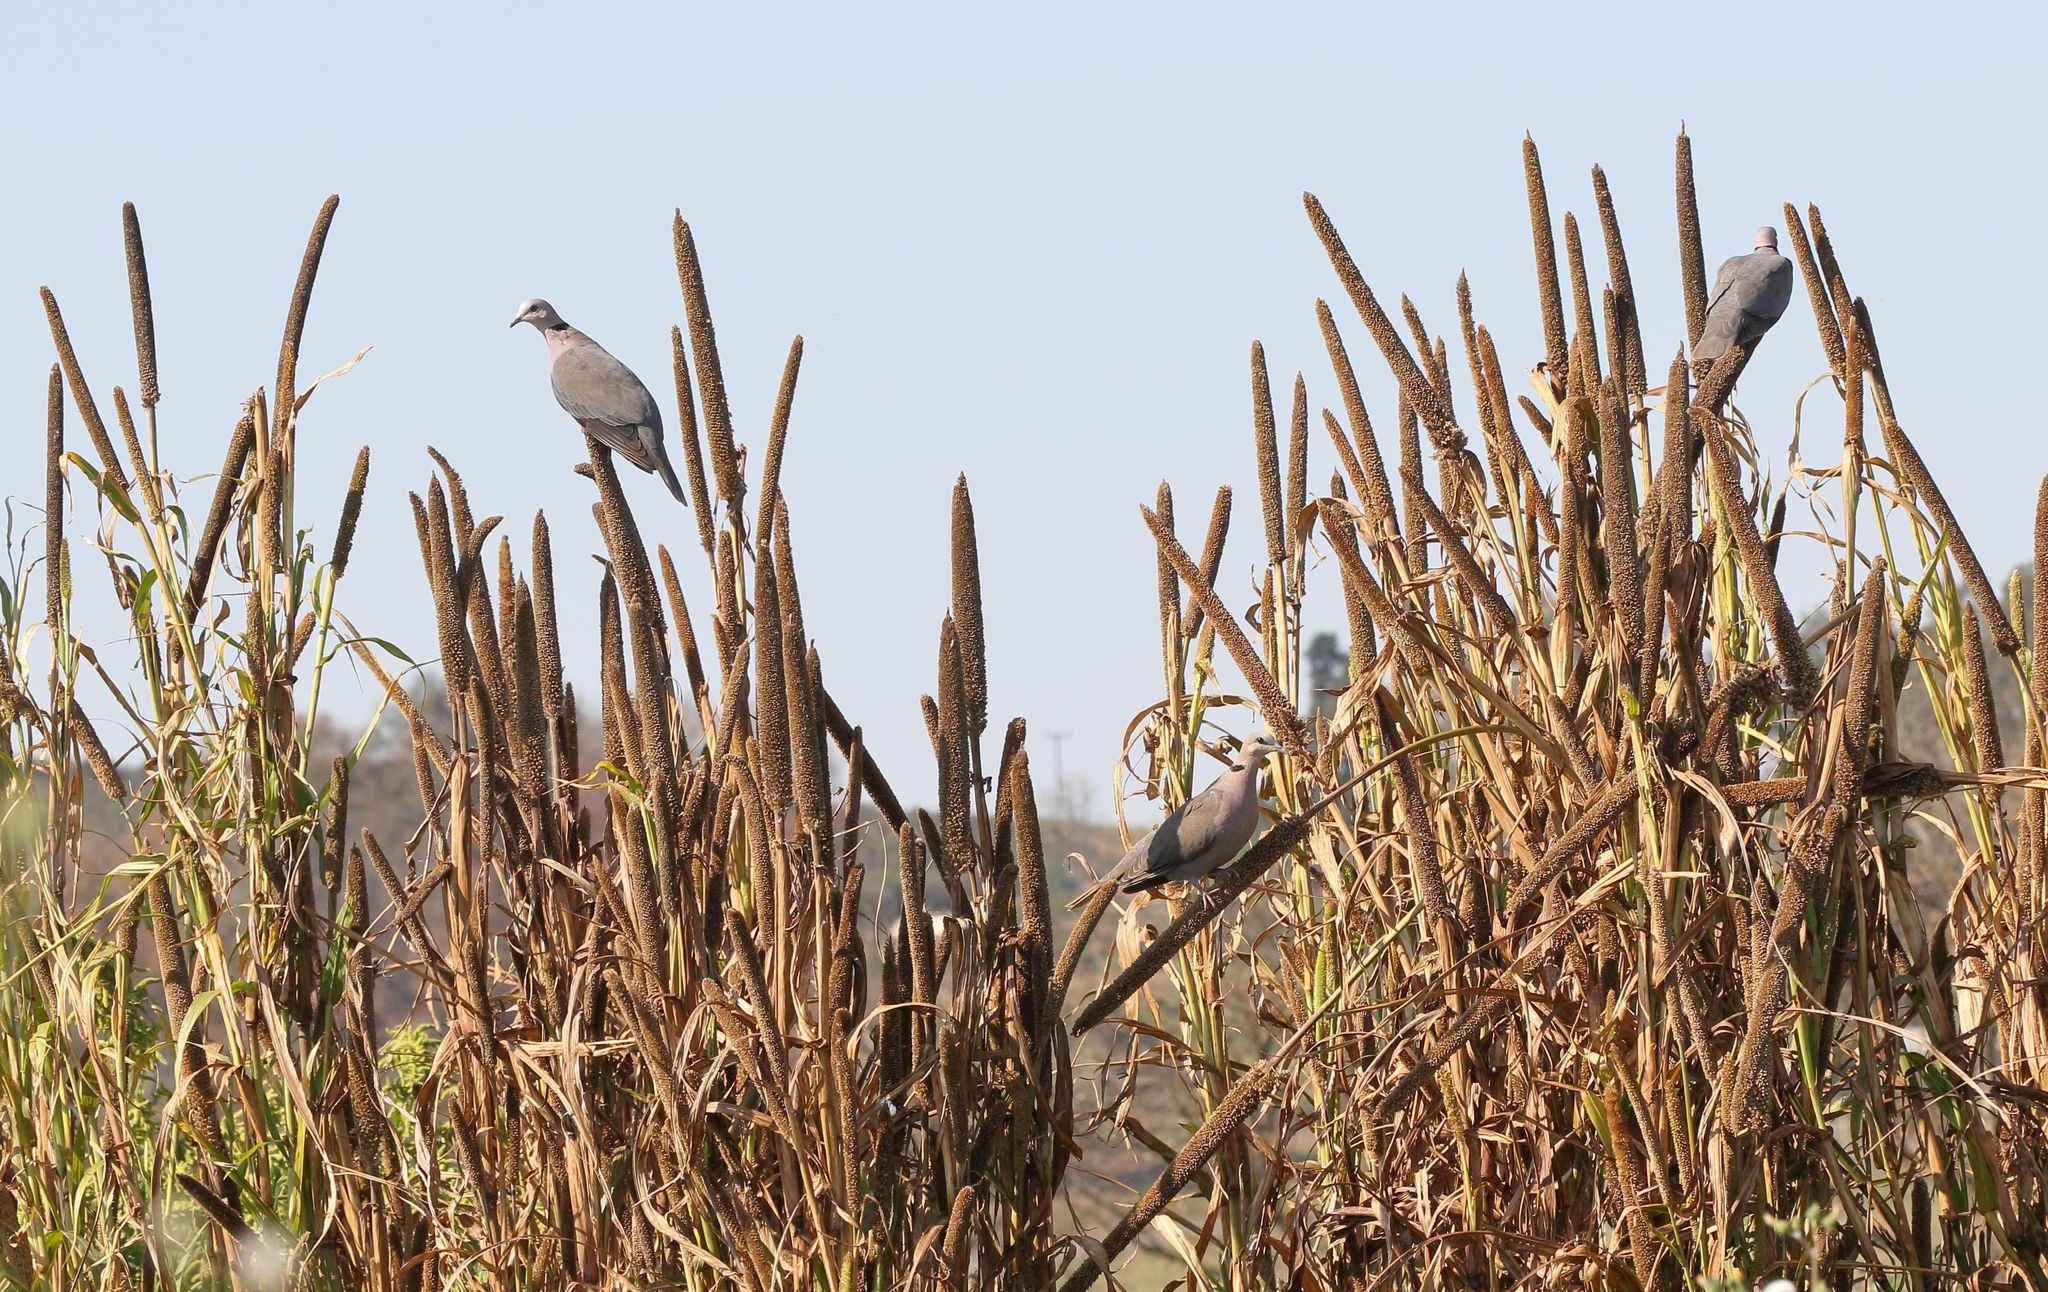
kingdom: Animalia
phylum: Chordata
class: Aves
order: Columbiformes
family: Columbidae
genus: Streptopelia
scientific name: Streptopelia semitorquata
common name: Red-eyed dove
